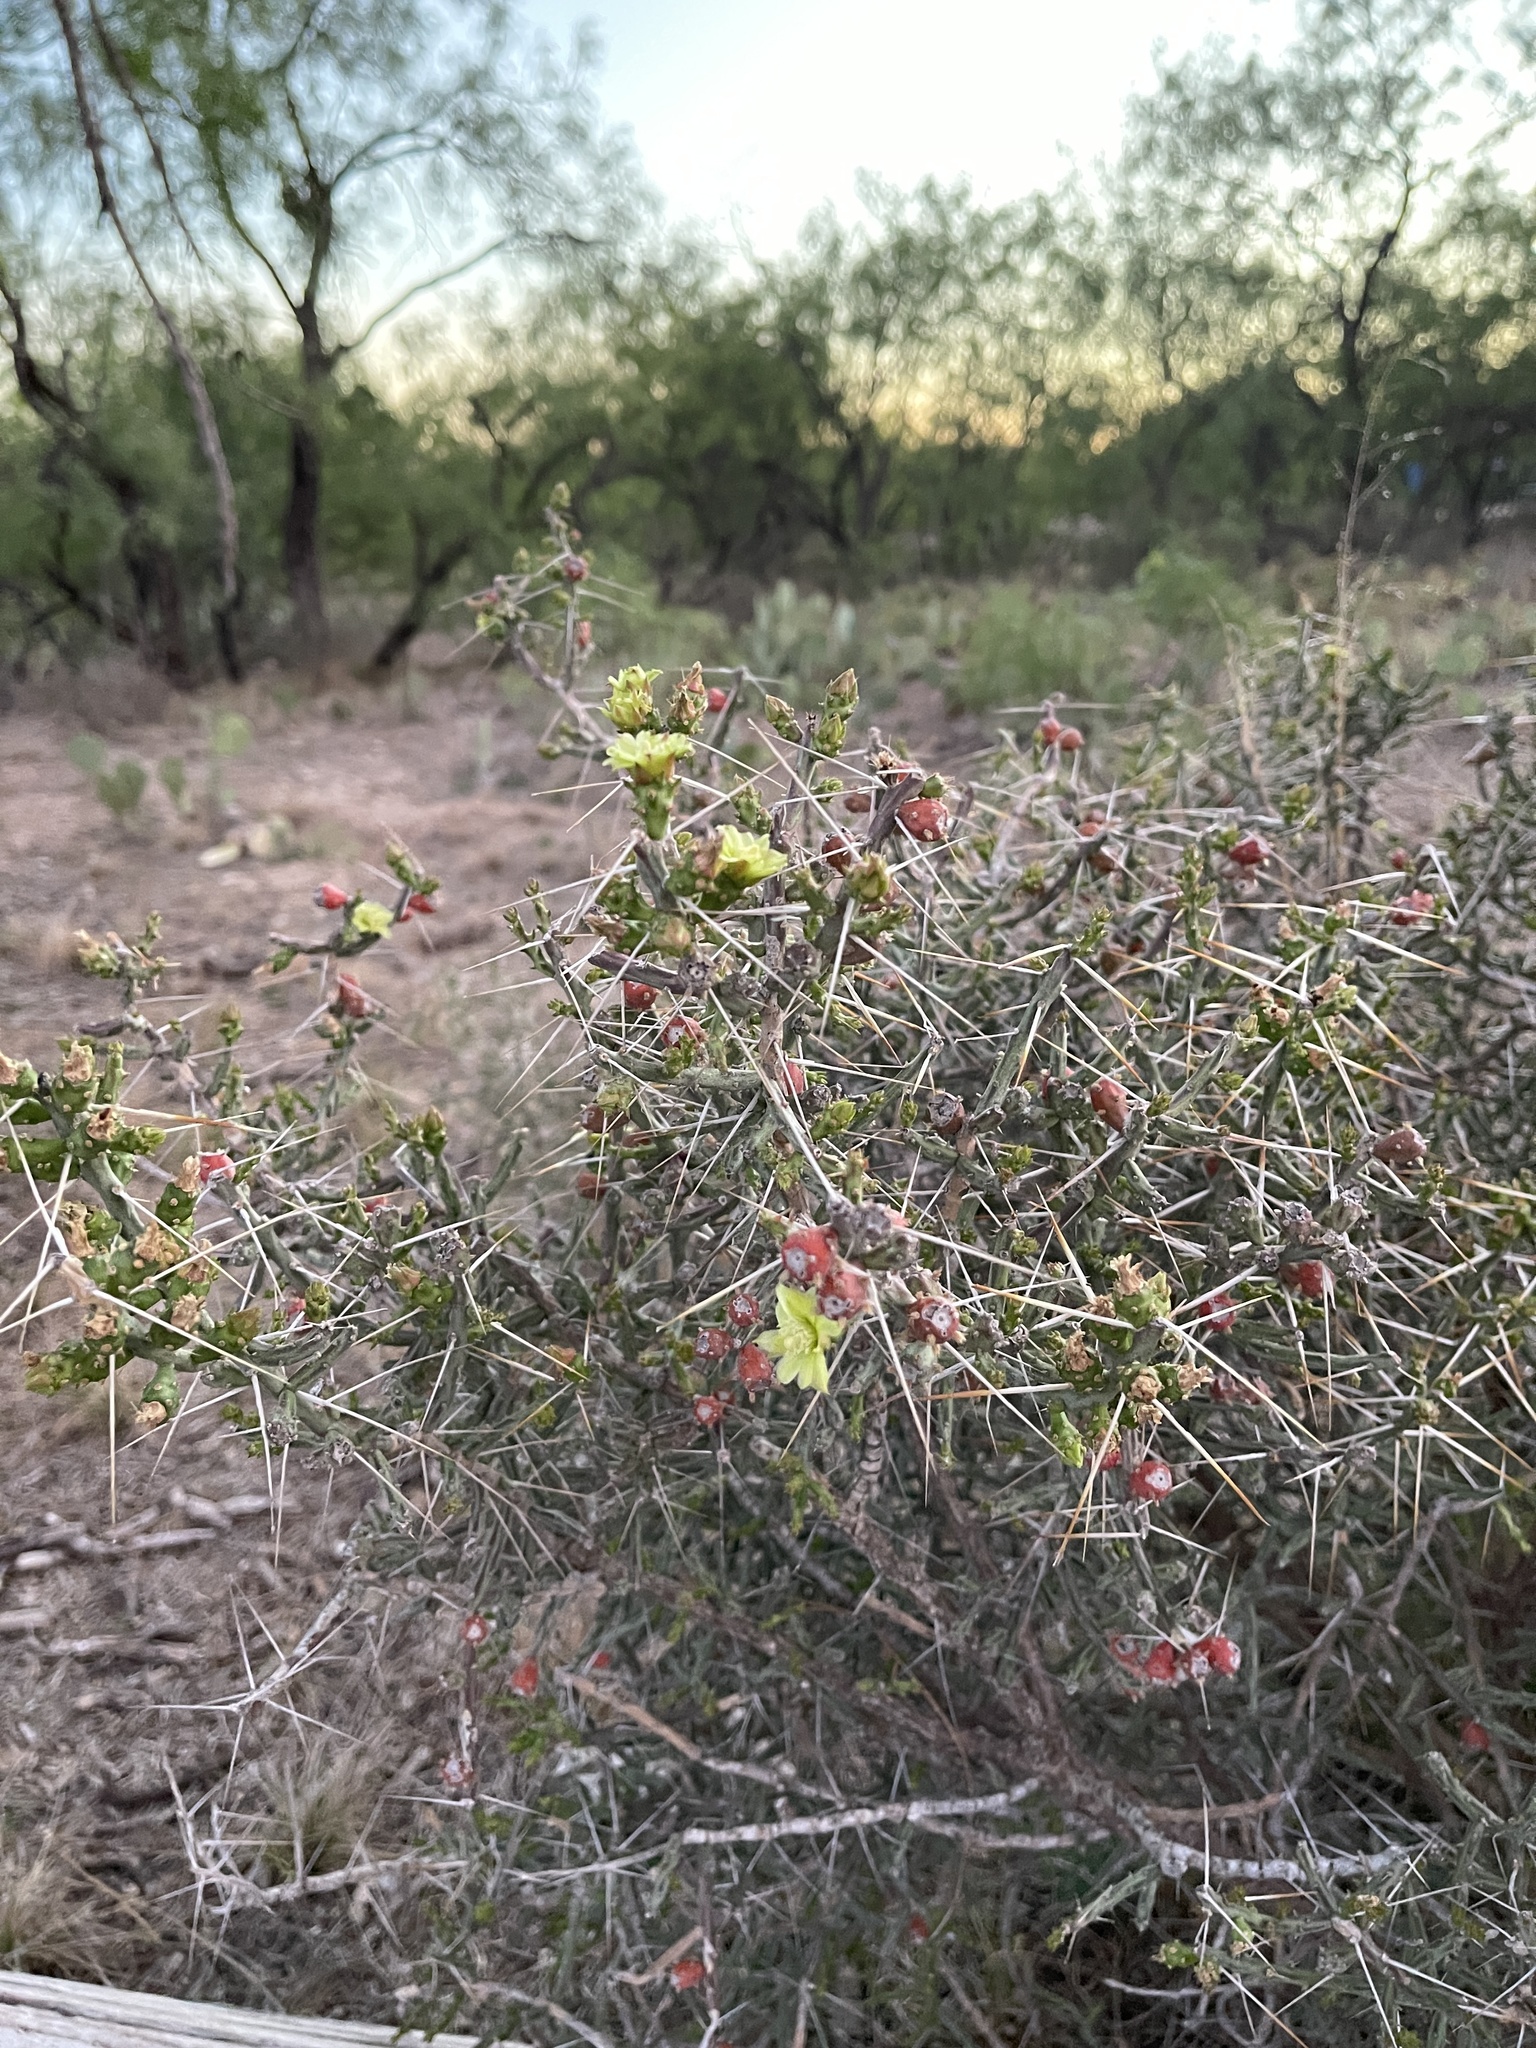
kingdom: Plantae
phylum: Tracheophyta
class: Magnoliopsida
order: Caryophyllales
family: Cactaceae
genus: Cylindropuntia
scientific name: Cylindropuntia leptocaulis
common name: Christmas cactus
